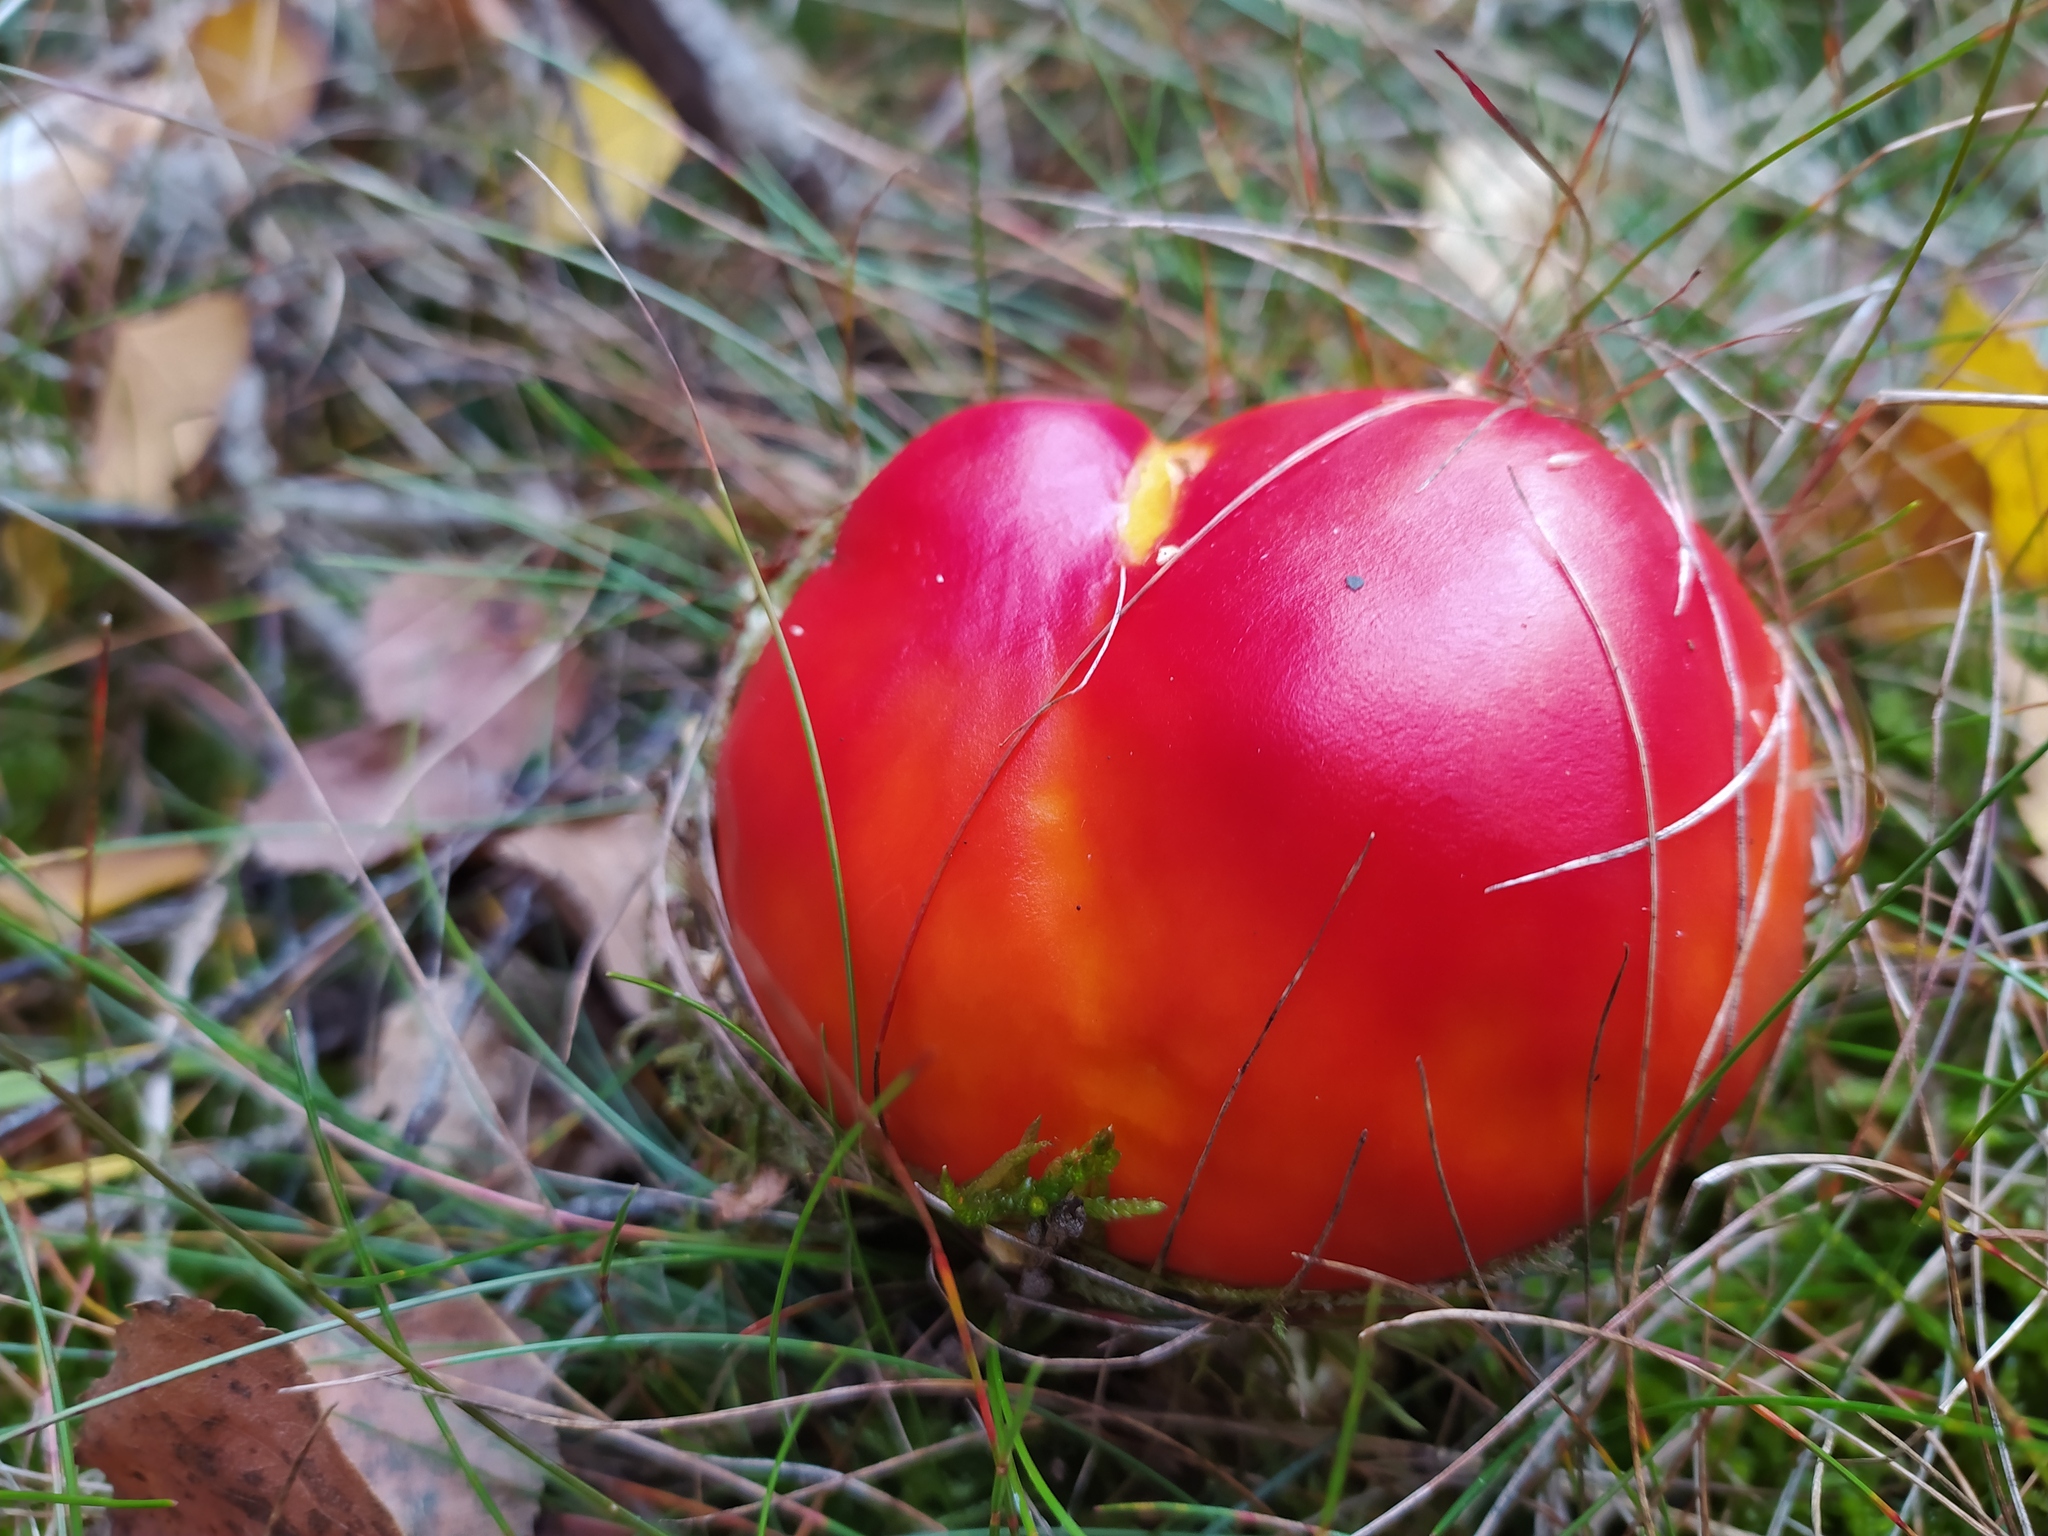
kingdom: Fungi
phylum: Basidiomycota
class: Agaricomycetes
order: Agaricales
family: Amanitaceae
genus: Amanita
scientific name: Amanita muscaria
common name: Fly agaric
